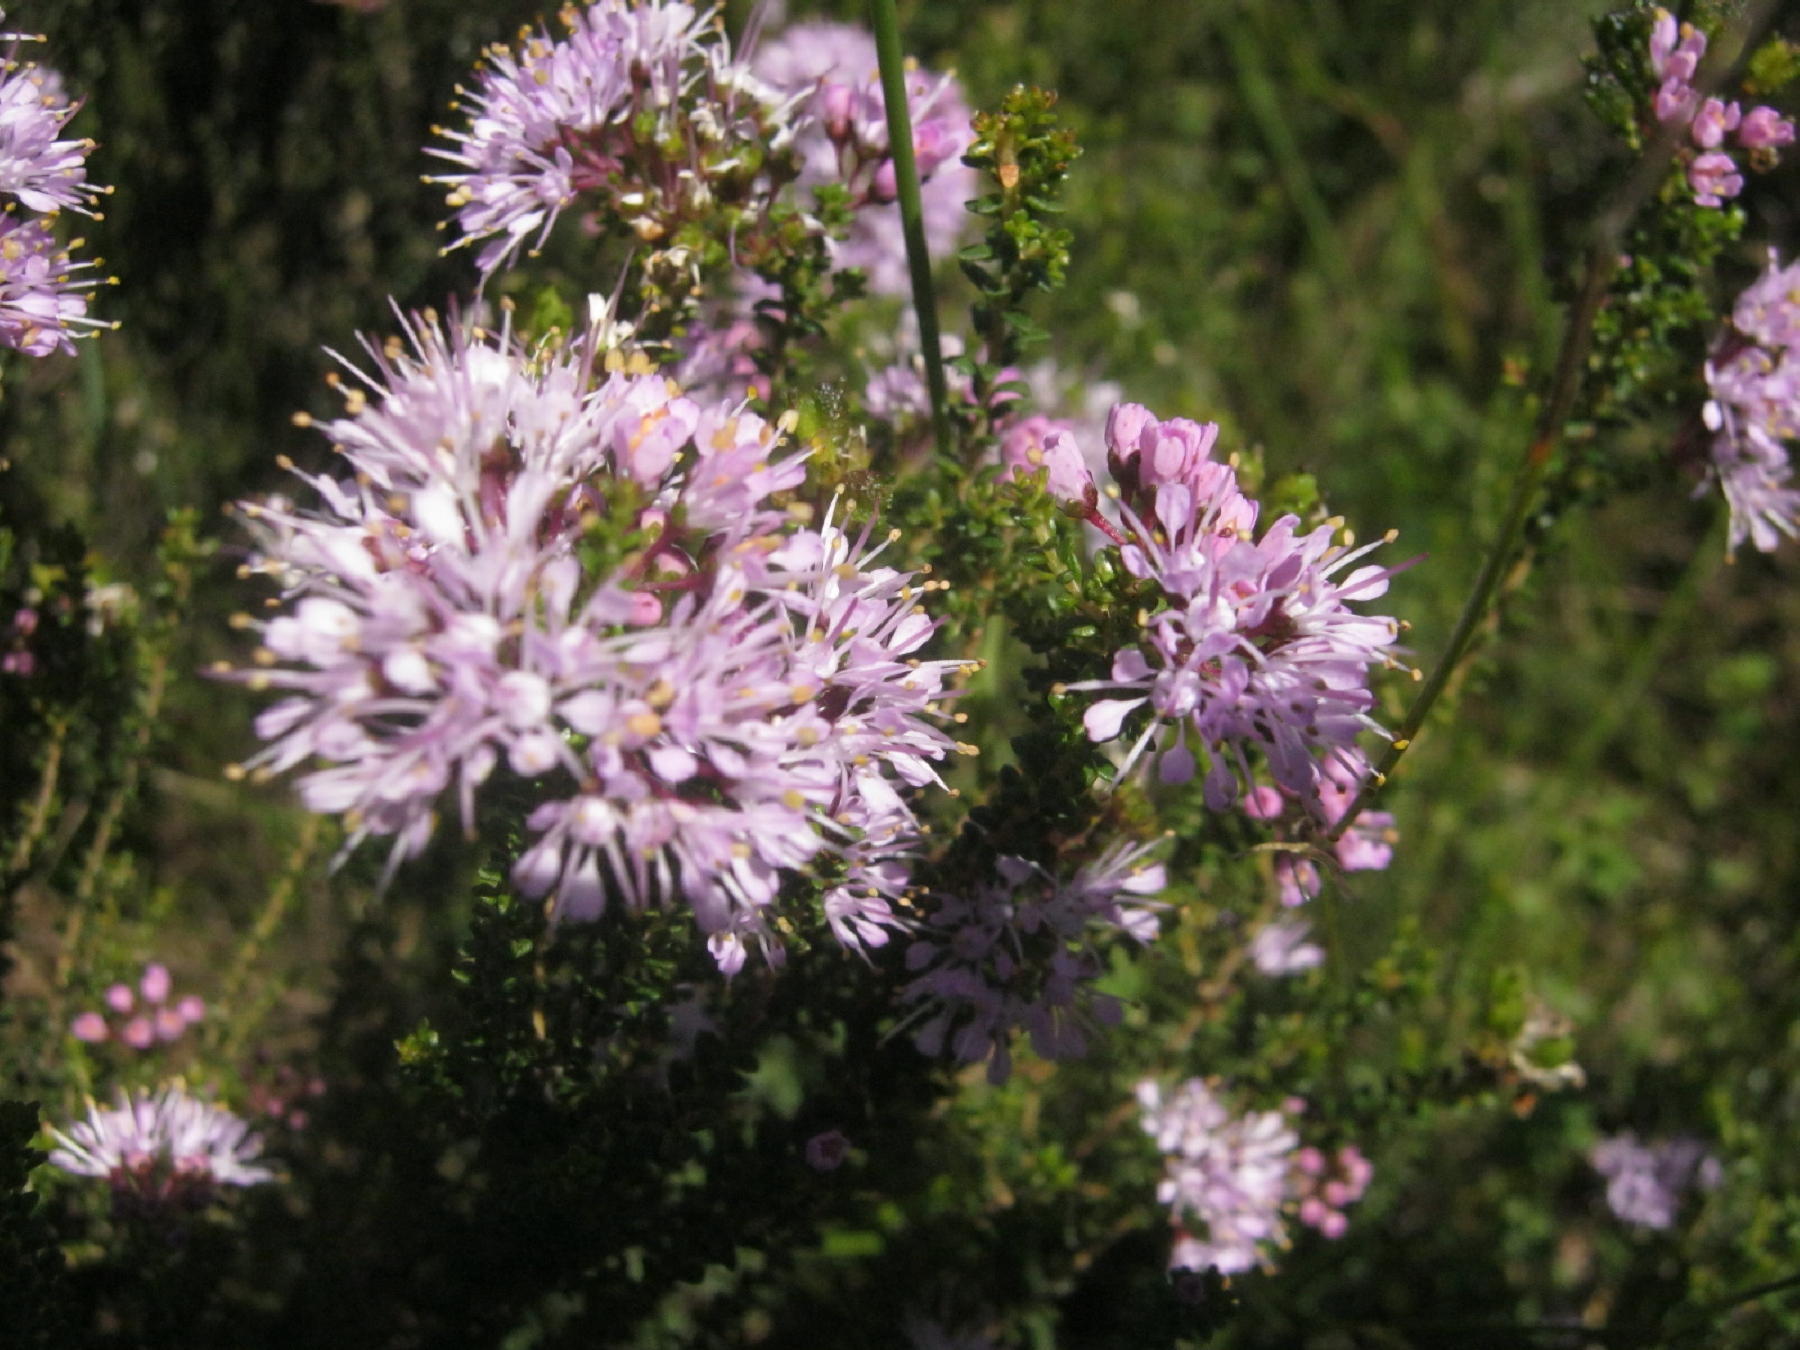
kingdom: Plantae
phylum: Tracheophyta
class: Magnoliopsida
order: Sapindales
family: Rutaceae
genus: Agathosma
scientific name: Agathosma capensis
